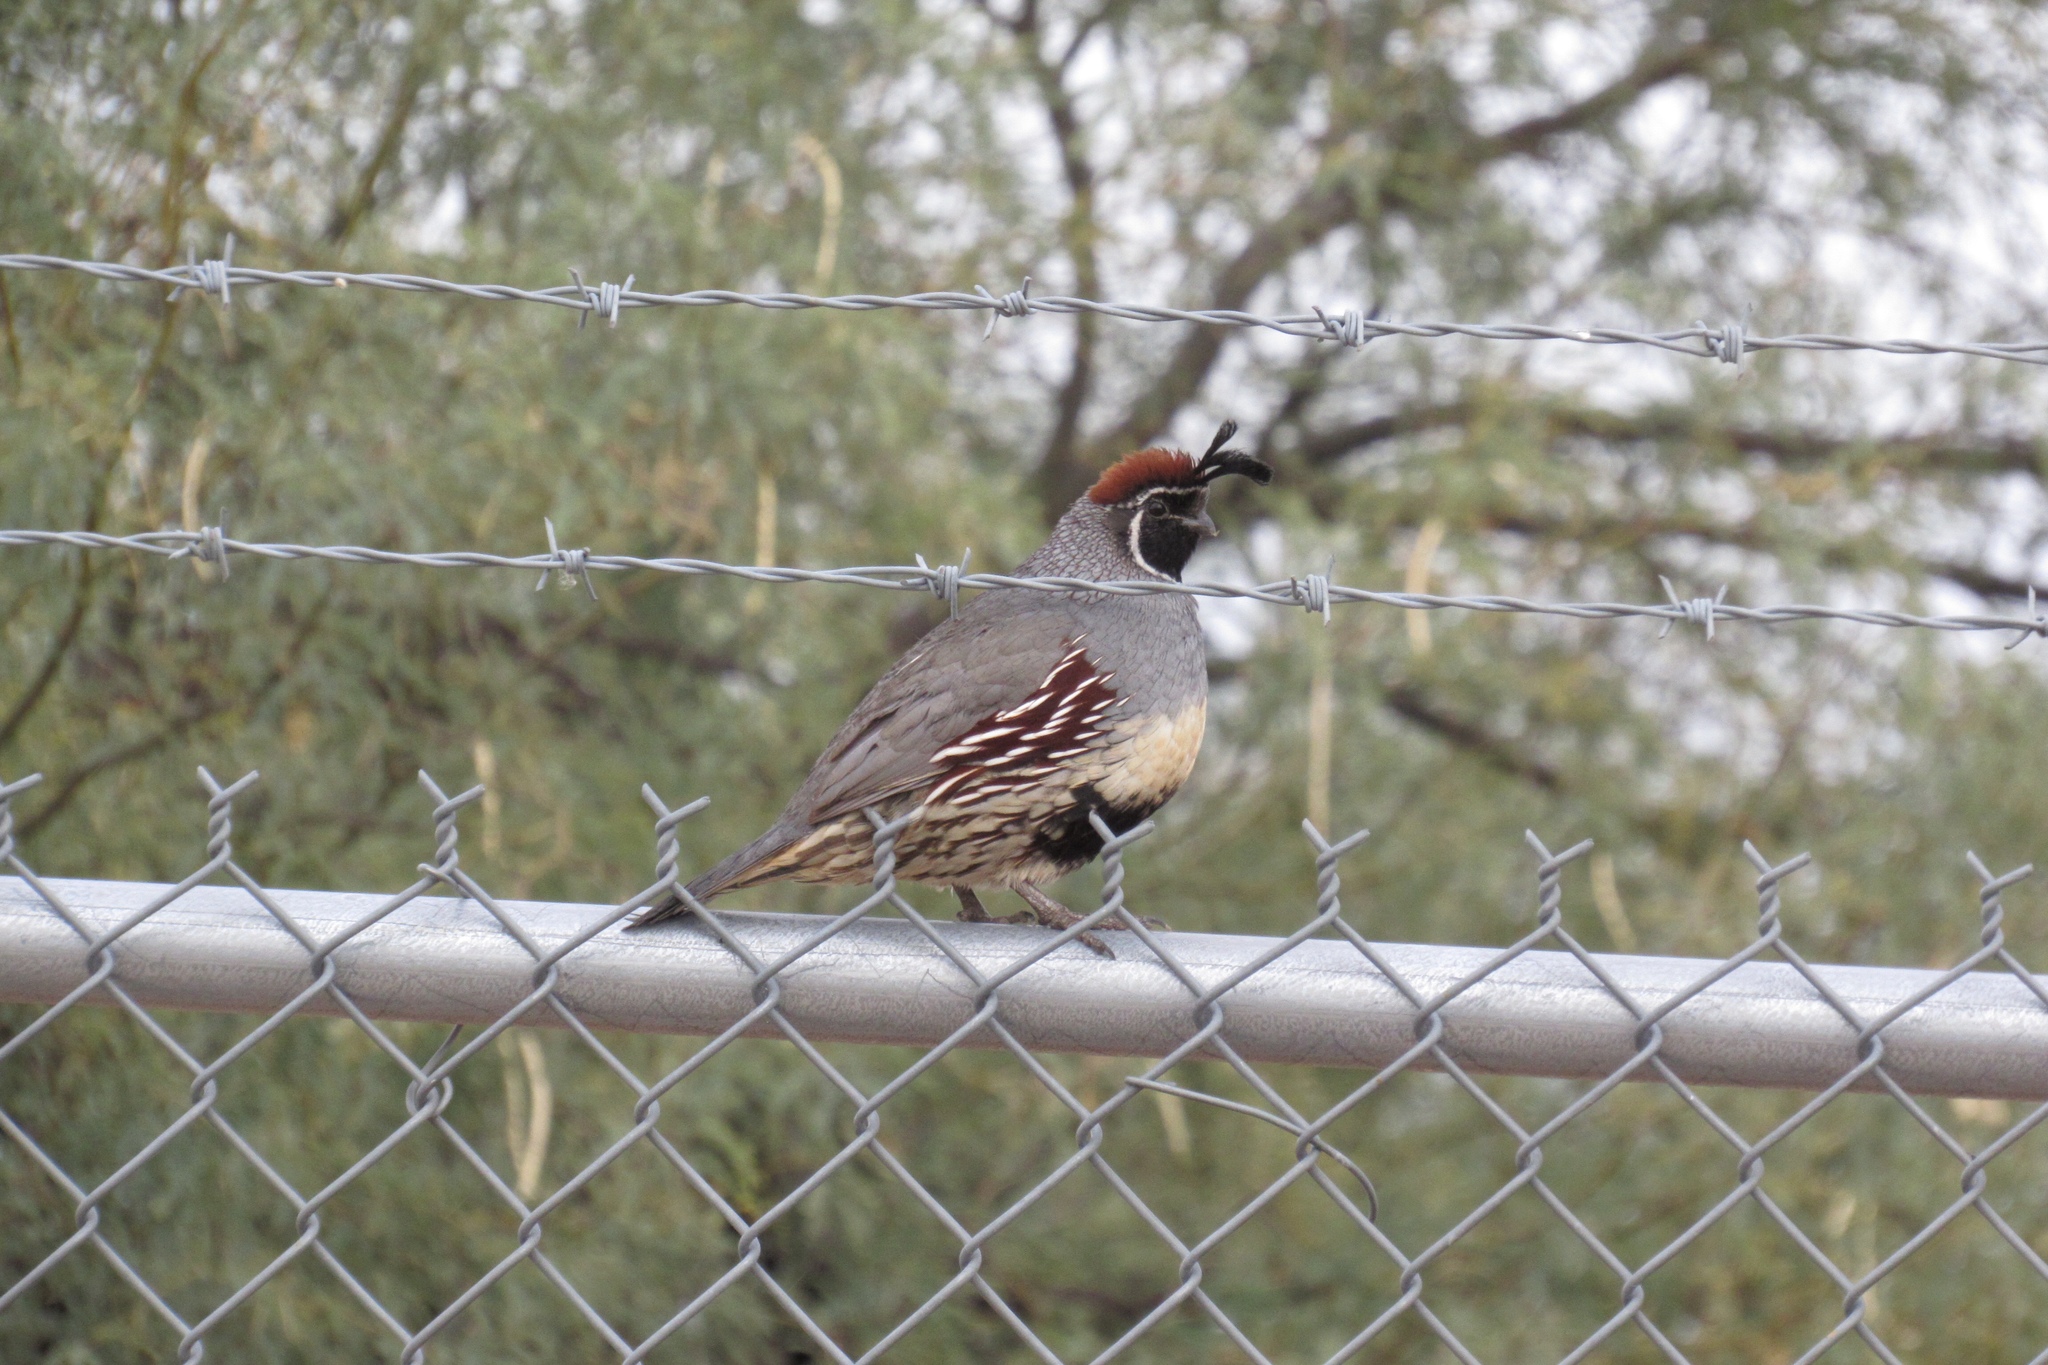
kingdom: Animalia
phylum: Chordata
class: Aves
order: Galliformes
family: Odontophoridae
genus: Callipepla
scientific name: Callipepla gambelii
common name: Gambel's quail
